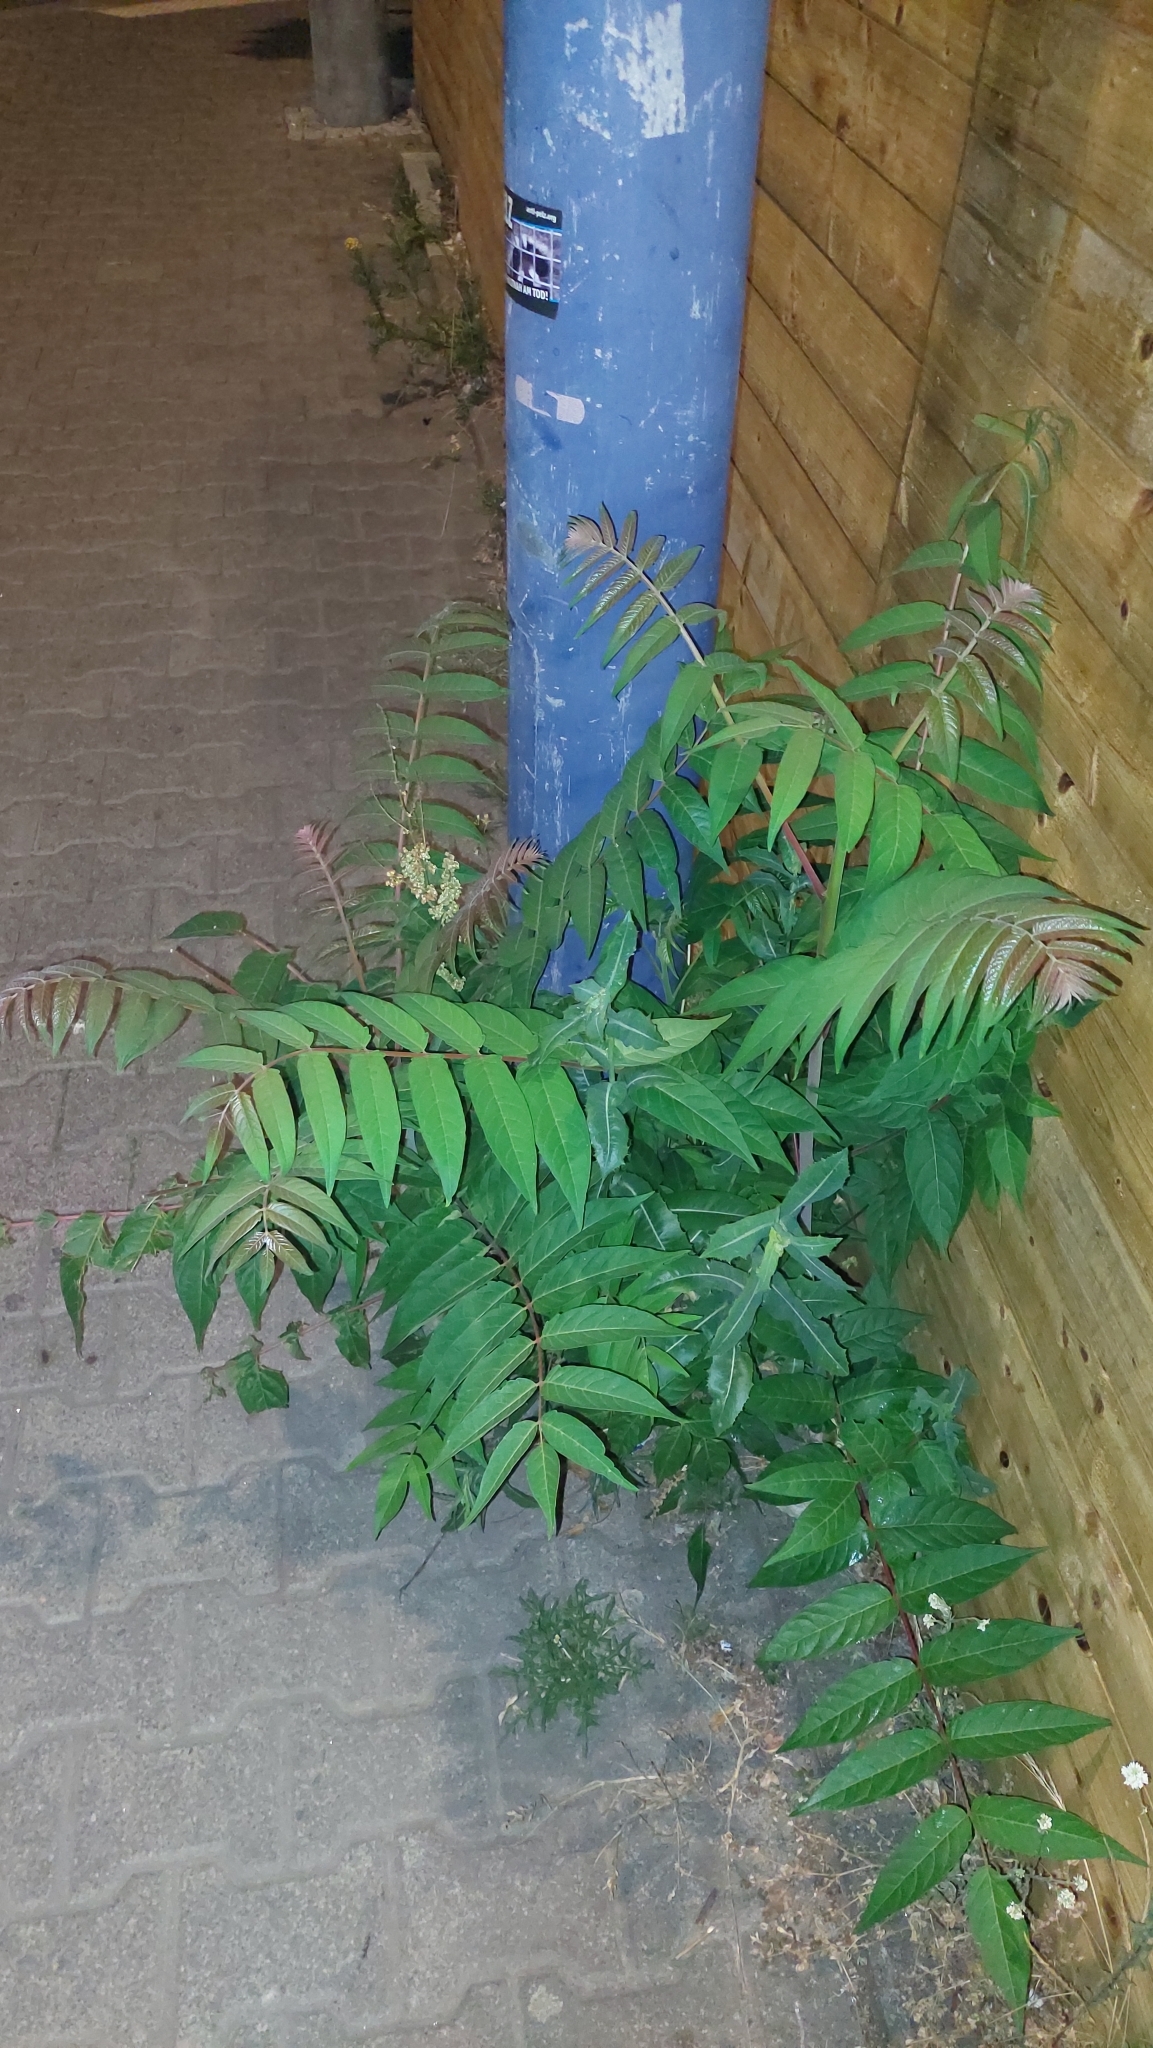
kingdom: Plantae
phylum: Tracheophyta
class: Magnoliopsida
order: Sapindales
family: Simaroubaceae
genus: Ailanthus
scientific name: Ailanthus altissima
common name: Tree-of-heaven
